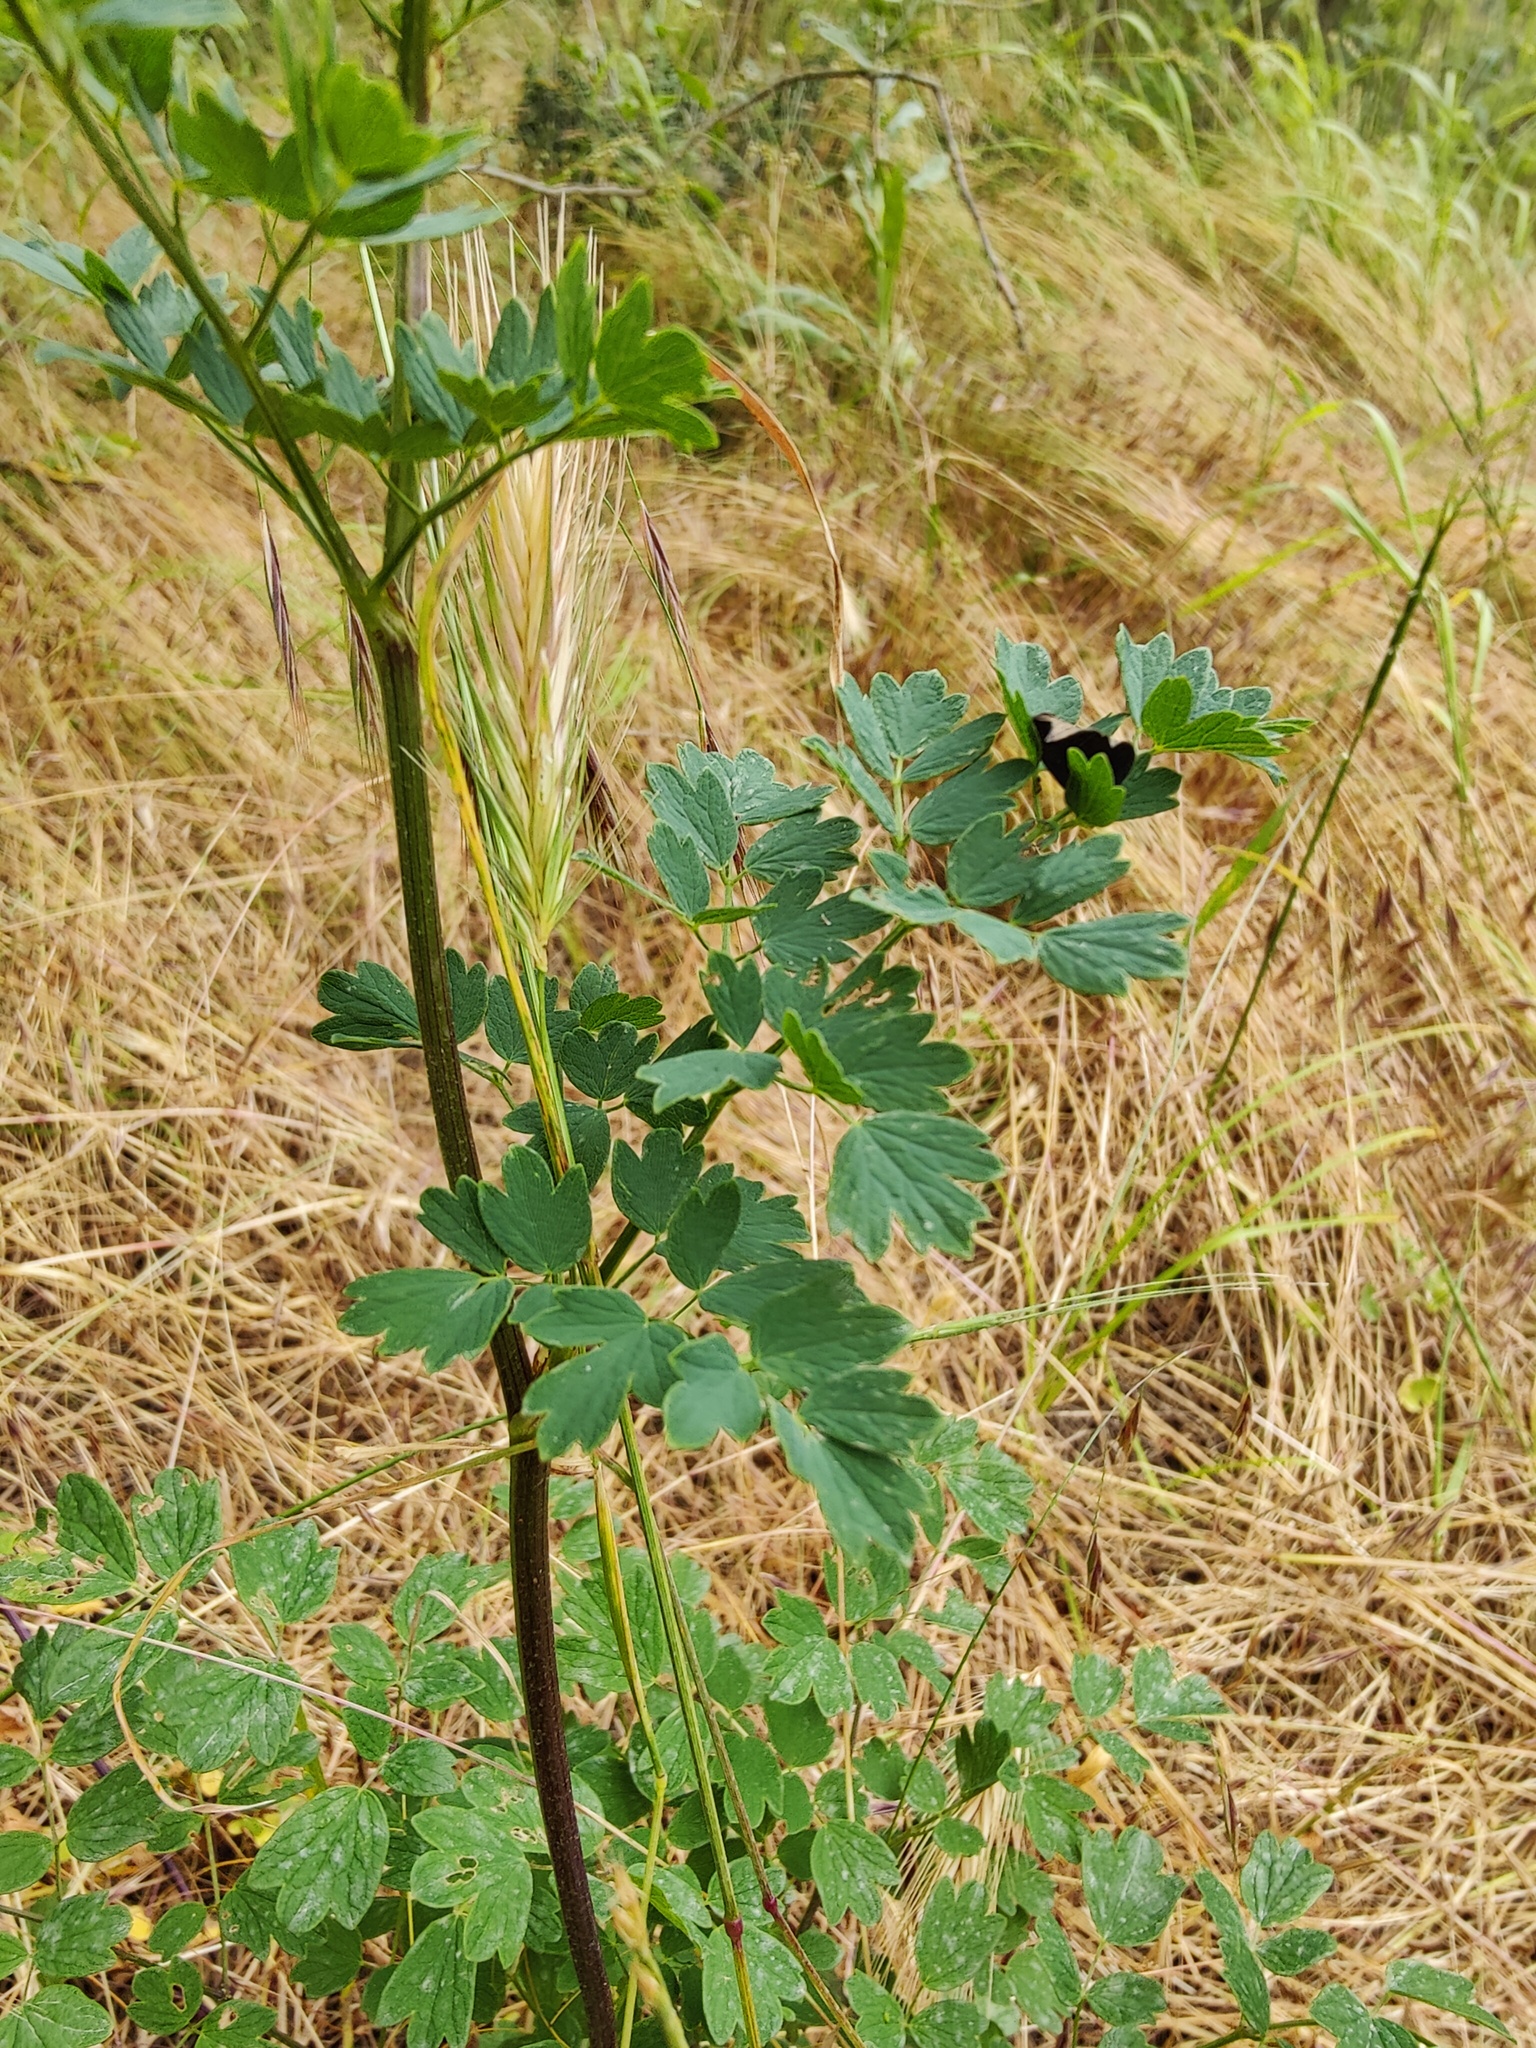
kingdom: Plantae
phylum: Tracheophyta
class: Magnoliopsida
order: Ranunculales
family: Ranunculaceae
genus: Thalictrum
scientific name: Thalictrum minus
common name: Lesser meadow-rue
